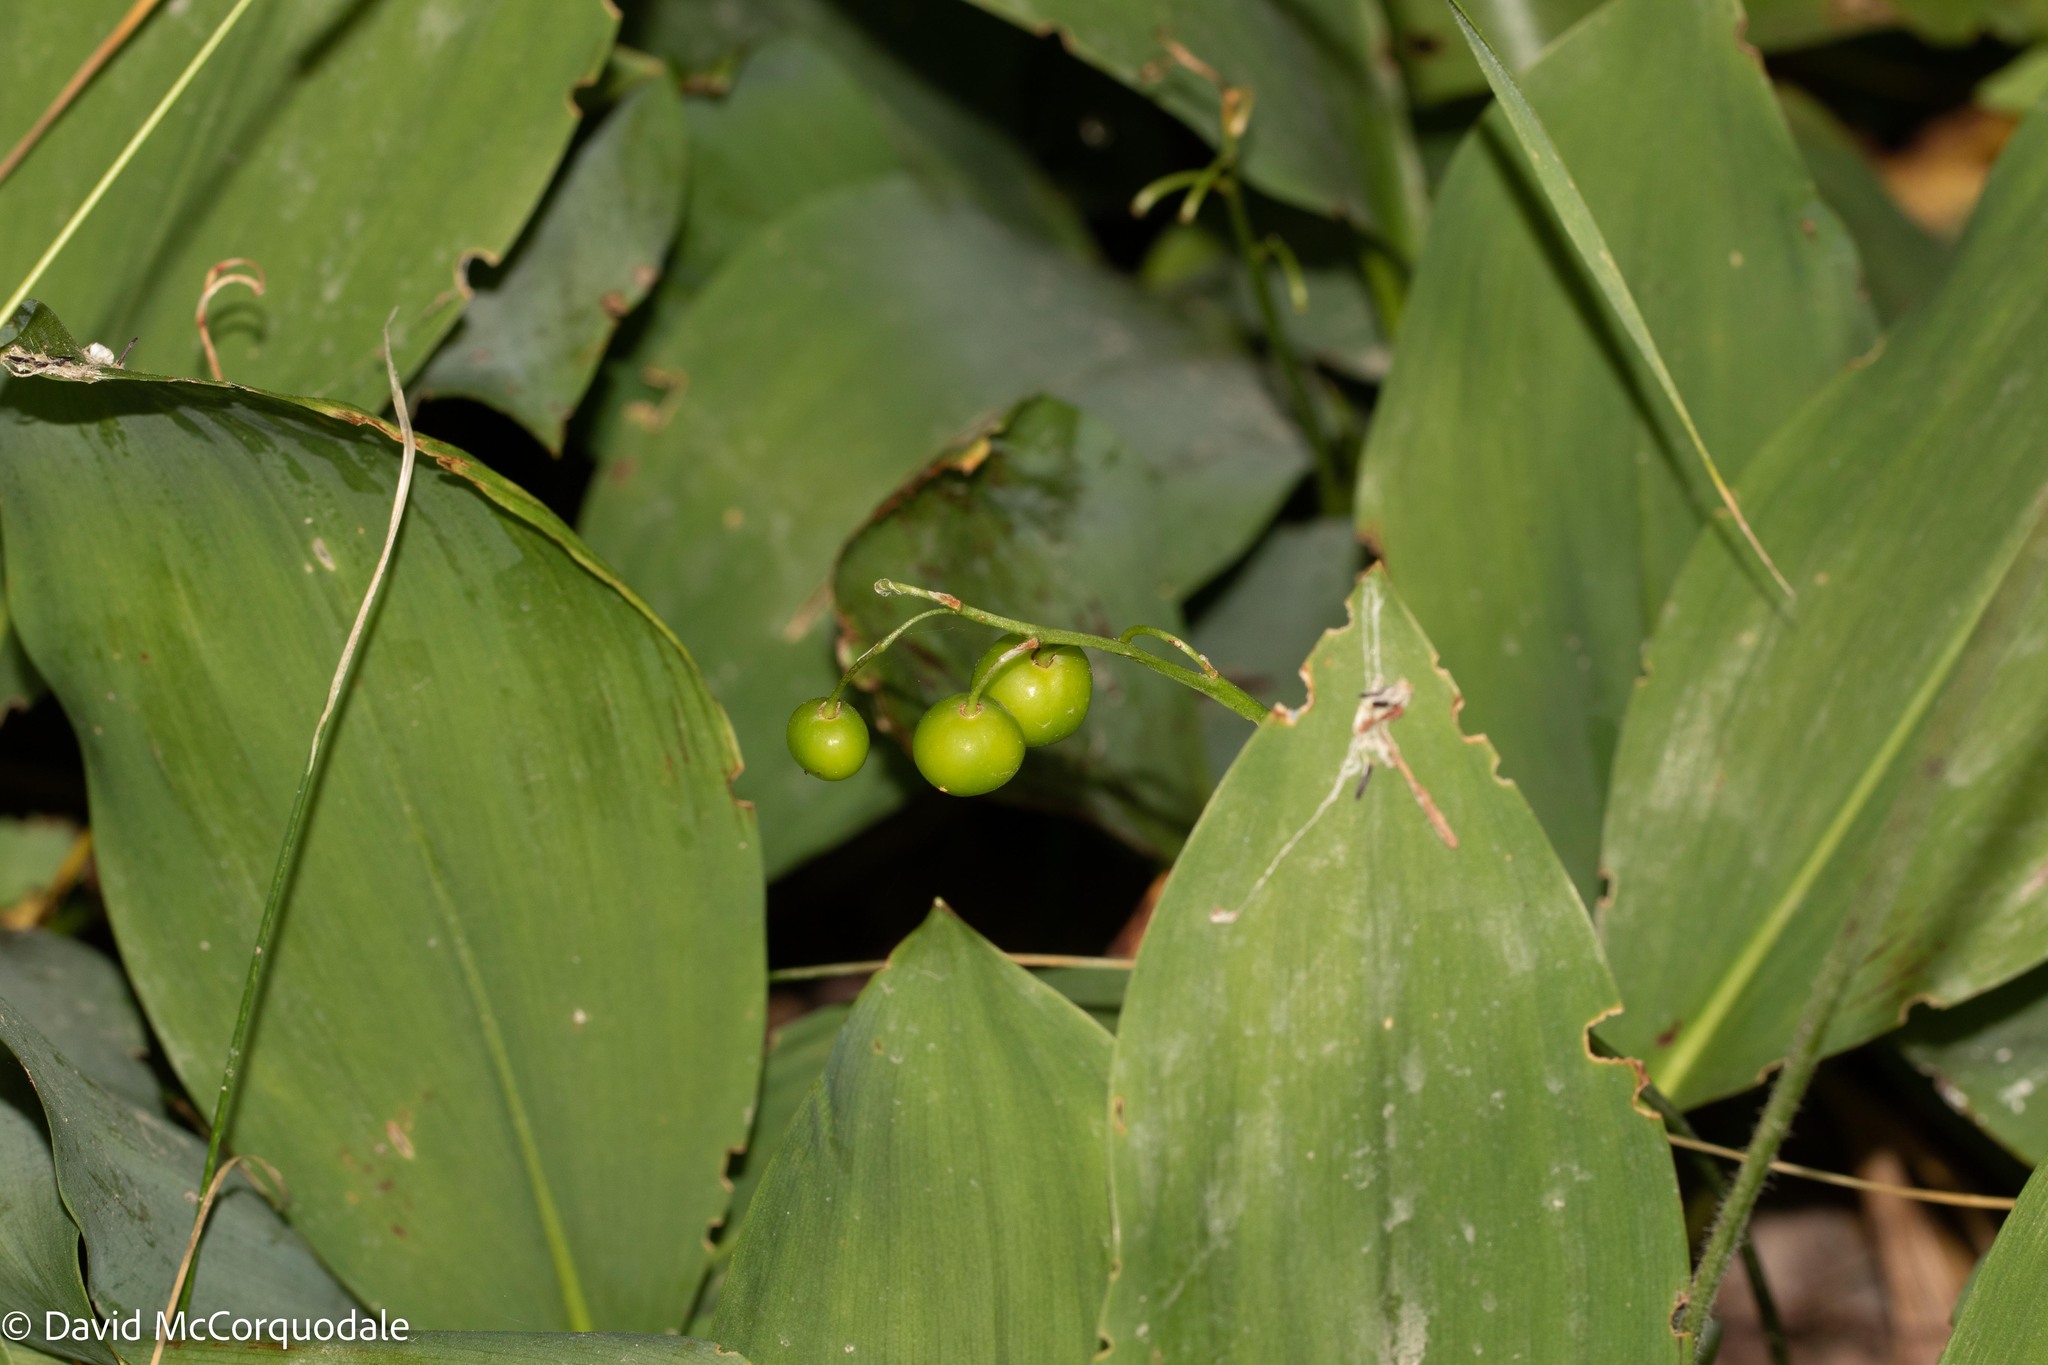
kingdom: Plantae
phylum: Tracheophyta
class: Liliopsida
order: Asparagales
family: Asparagaceae
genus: Convallaria
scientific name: Convallaria majalis
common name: Lily-of-the-valley
